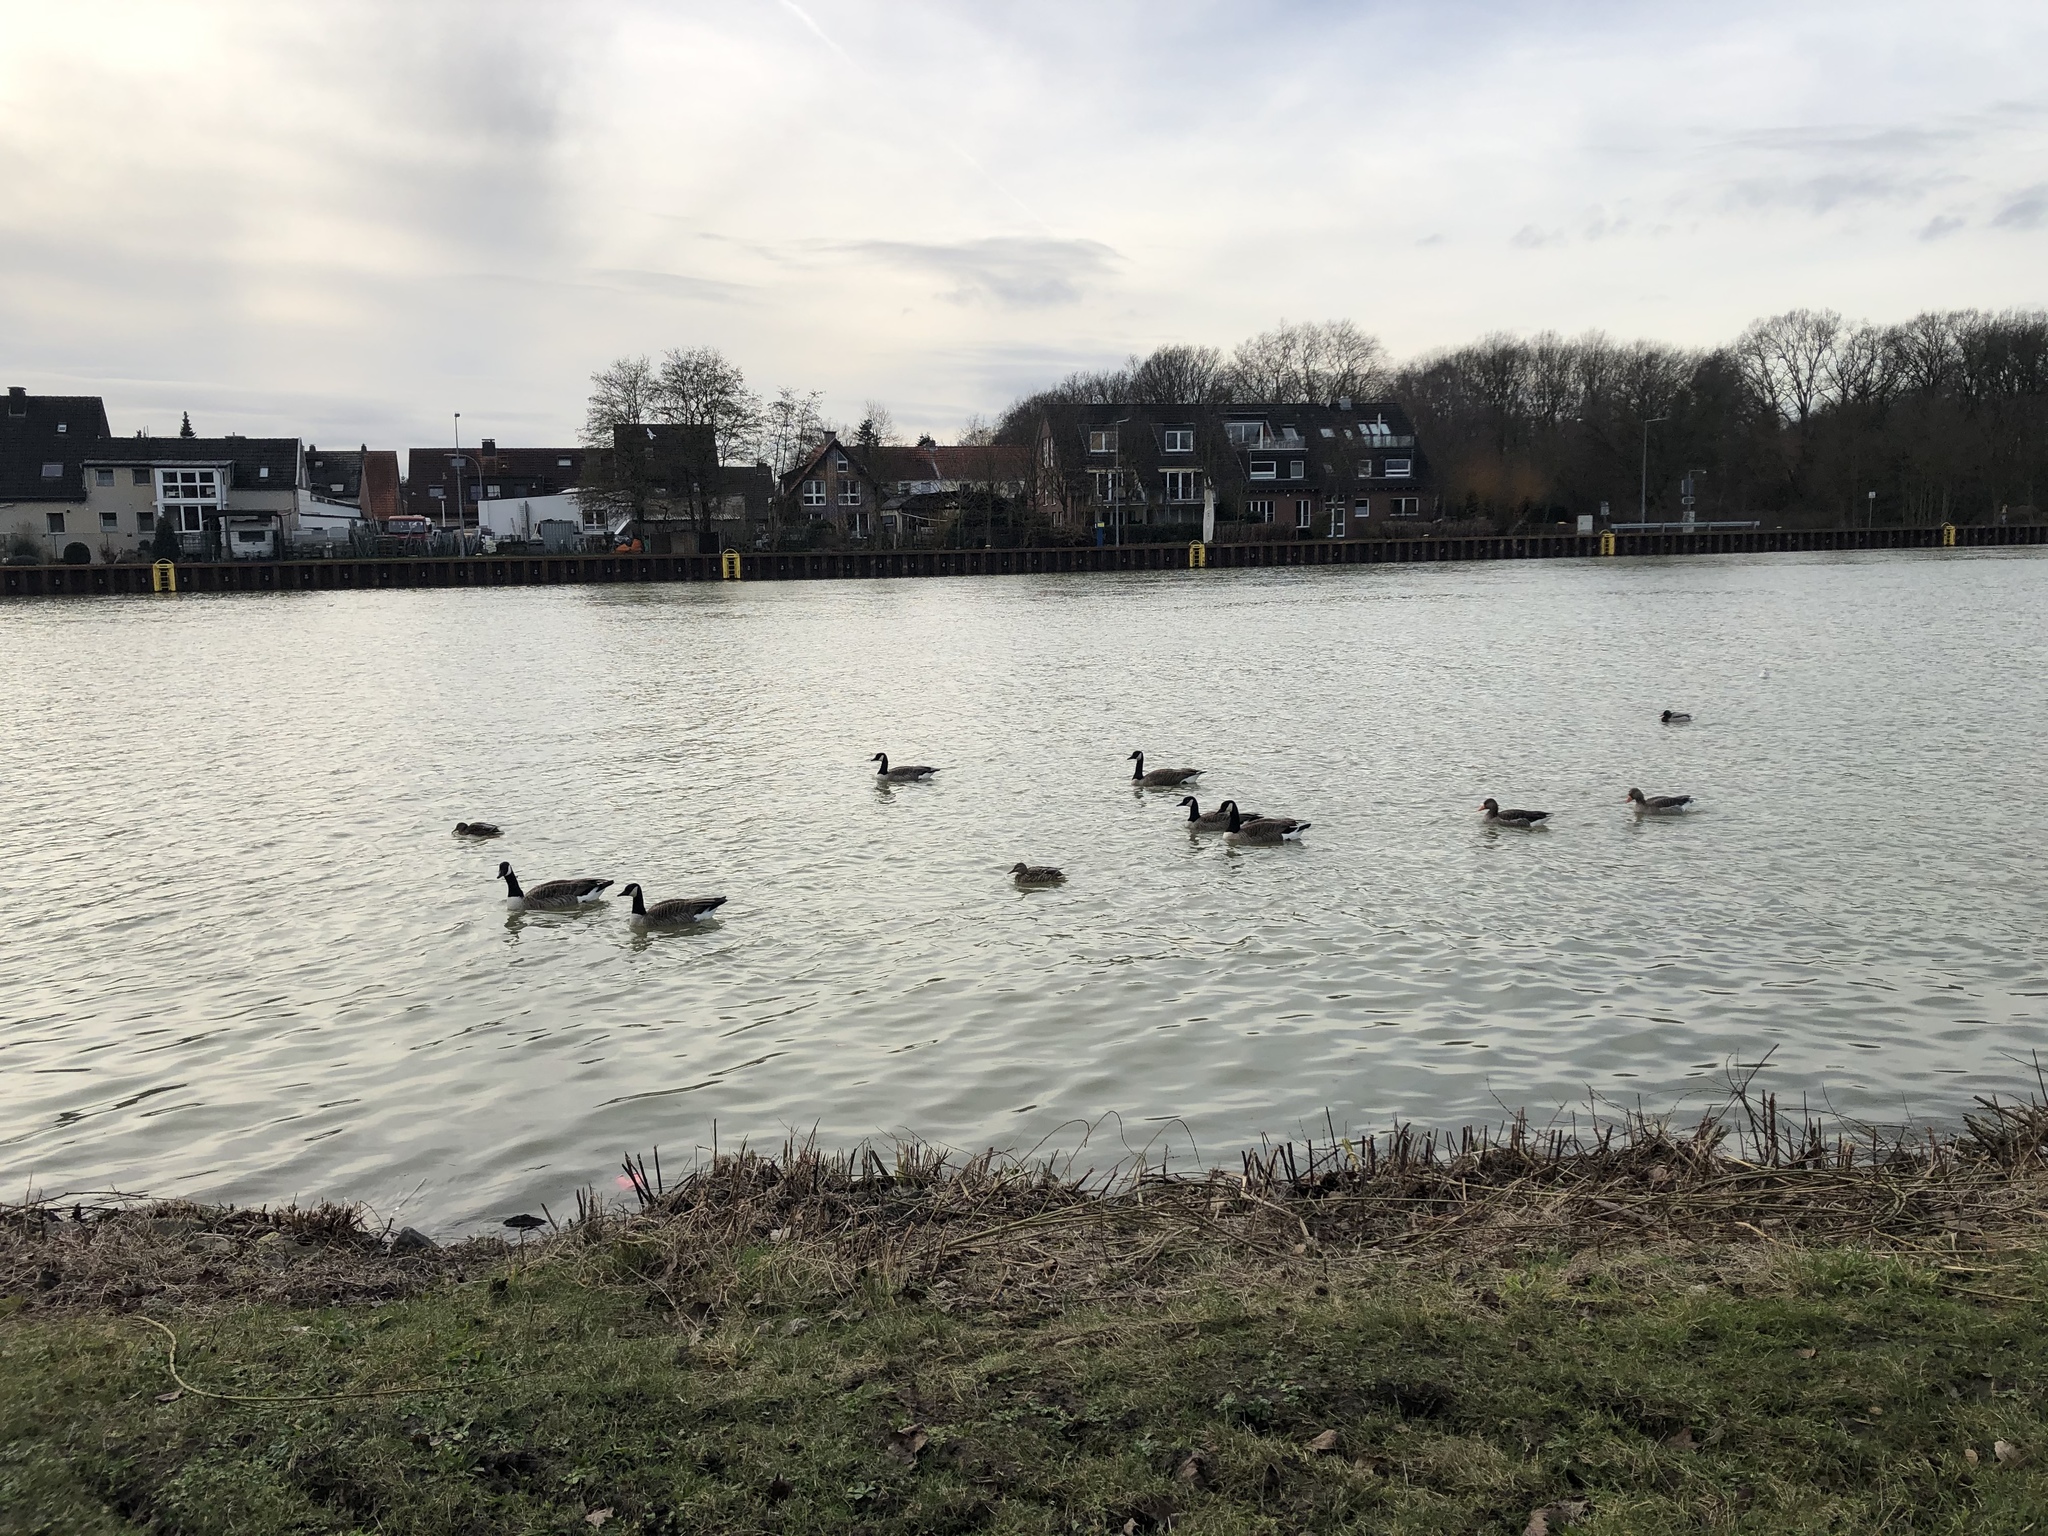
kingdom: Animalia
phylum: Chordata
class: Aves
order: Anseriformes
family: Anatidae
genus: Branta
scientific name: Branta canadensis
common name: Canada goose
